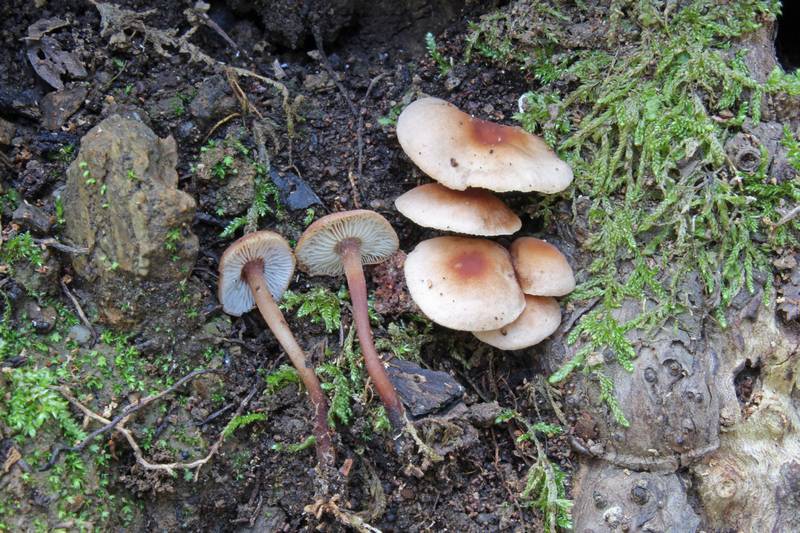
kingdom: Fungi
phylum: Basidiomycota
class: Agaricomycetes
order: Agaricales
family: Omphalotaceae
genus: Gymnopus
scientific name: Gymnopus brassicolens
